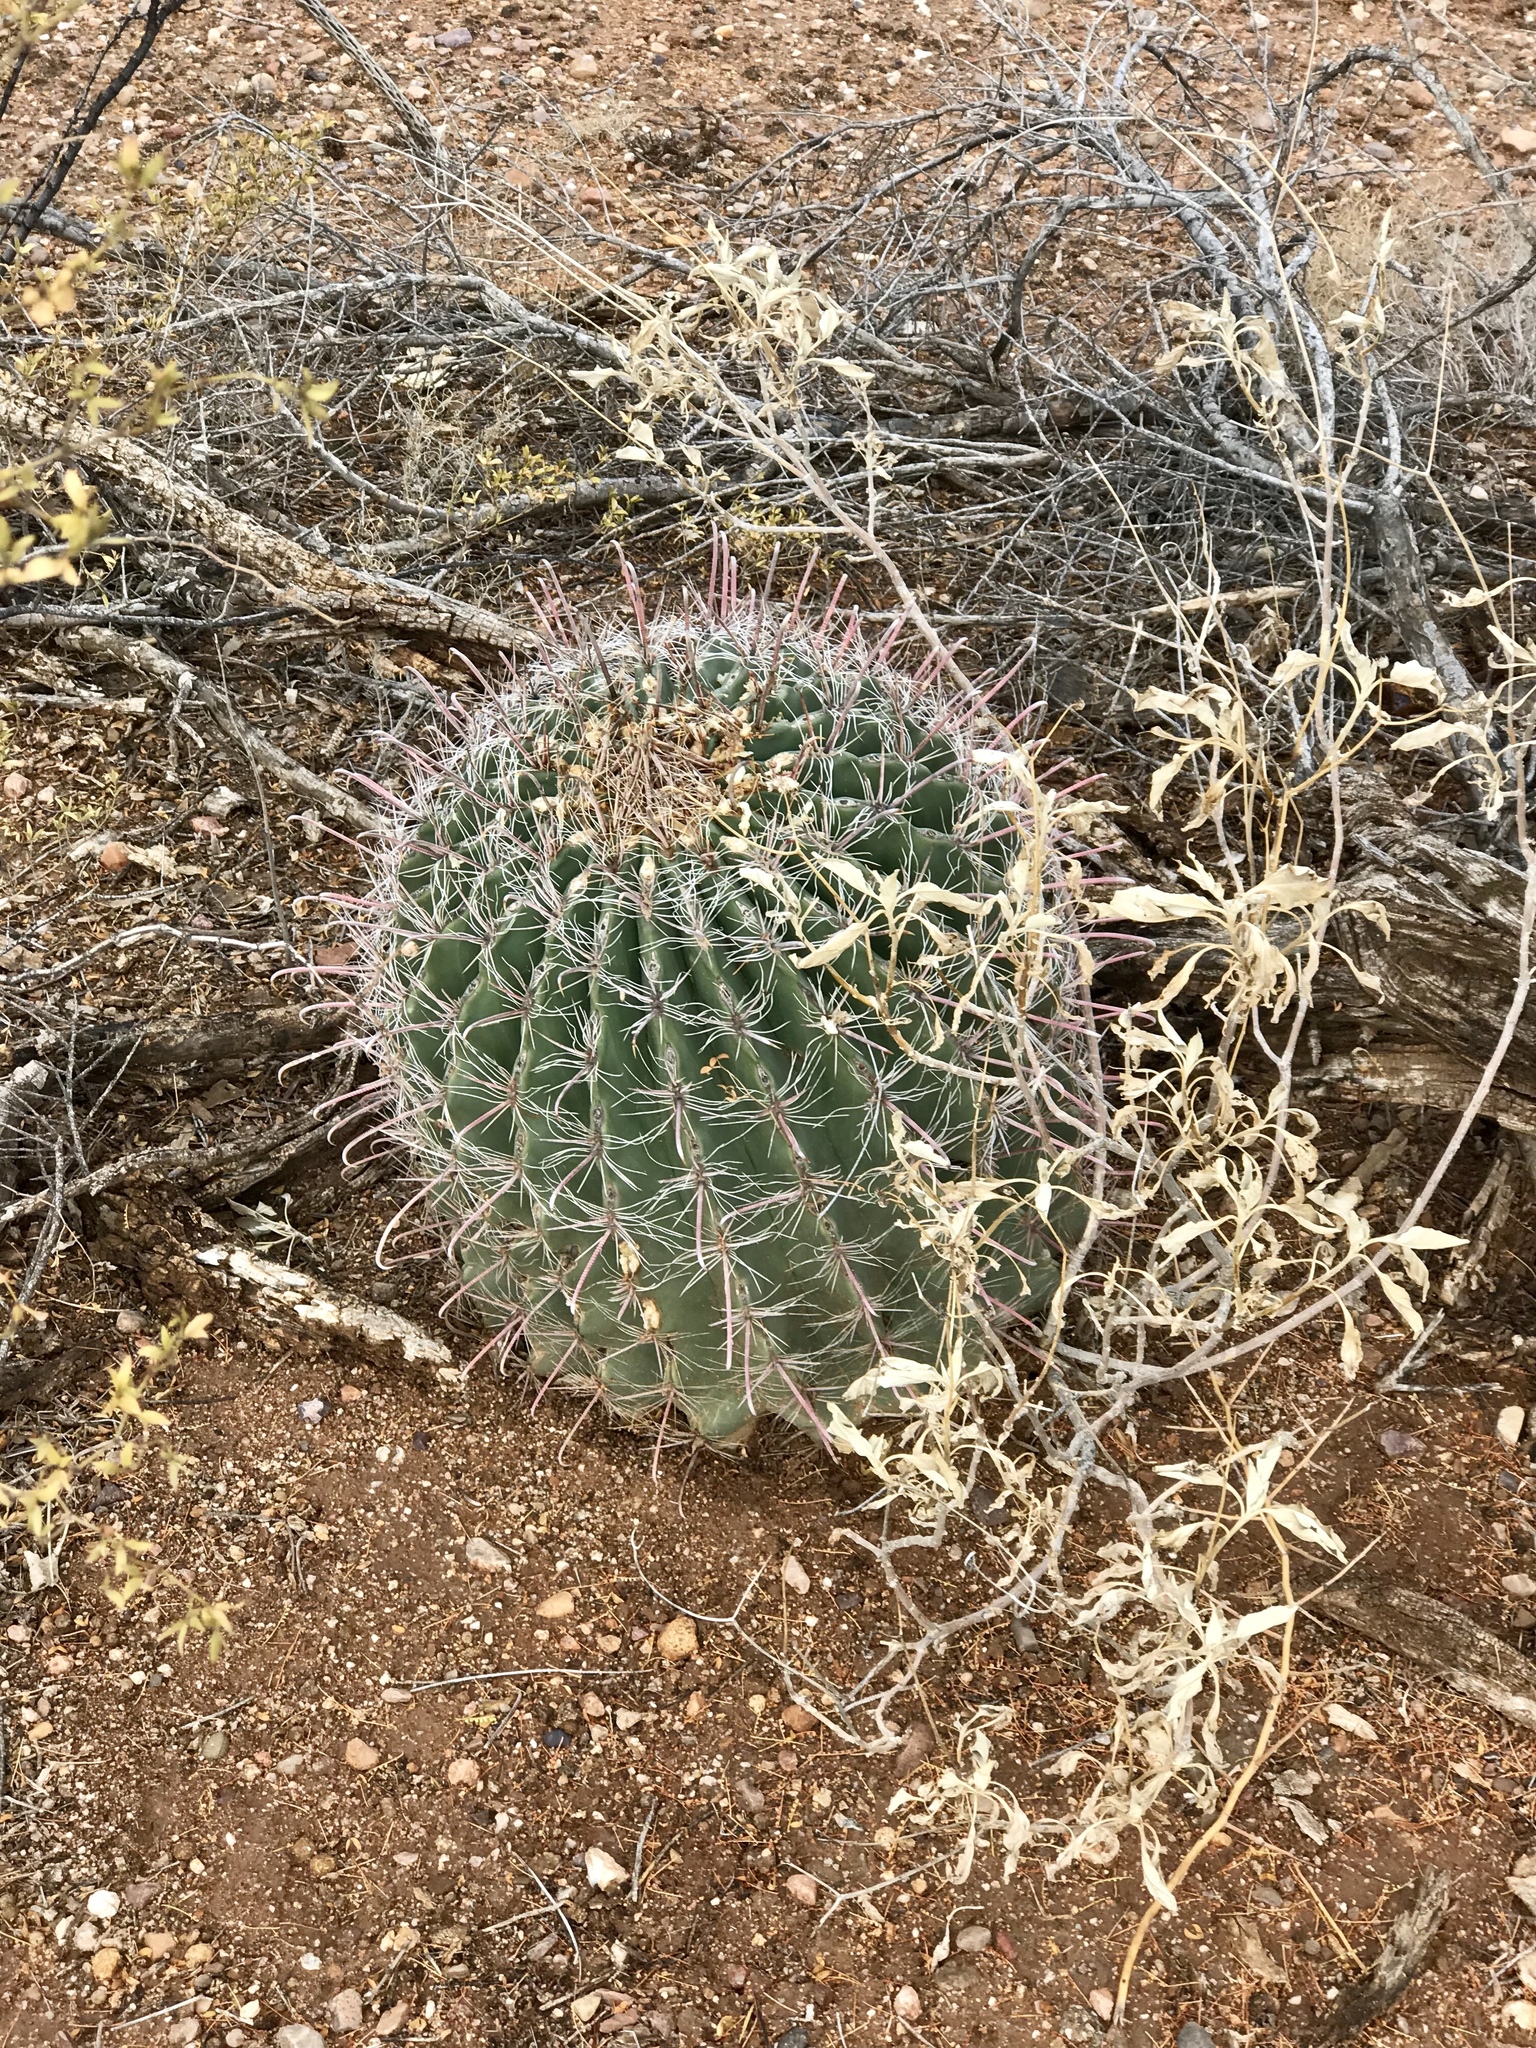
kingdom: Plantae
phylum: Tracheophyta
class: Magnoliopsida
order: Caryophyllales
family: Cactaceae
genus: Ferocactus
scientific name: Ferocactus wislizeni
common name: Candy barrel cactus
